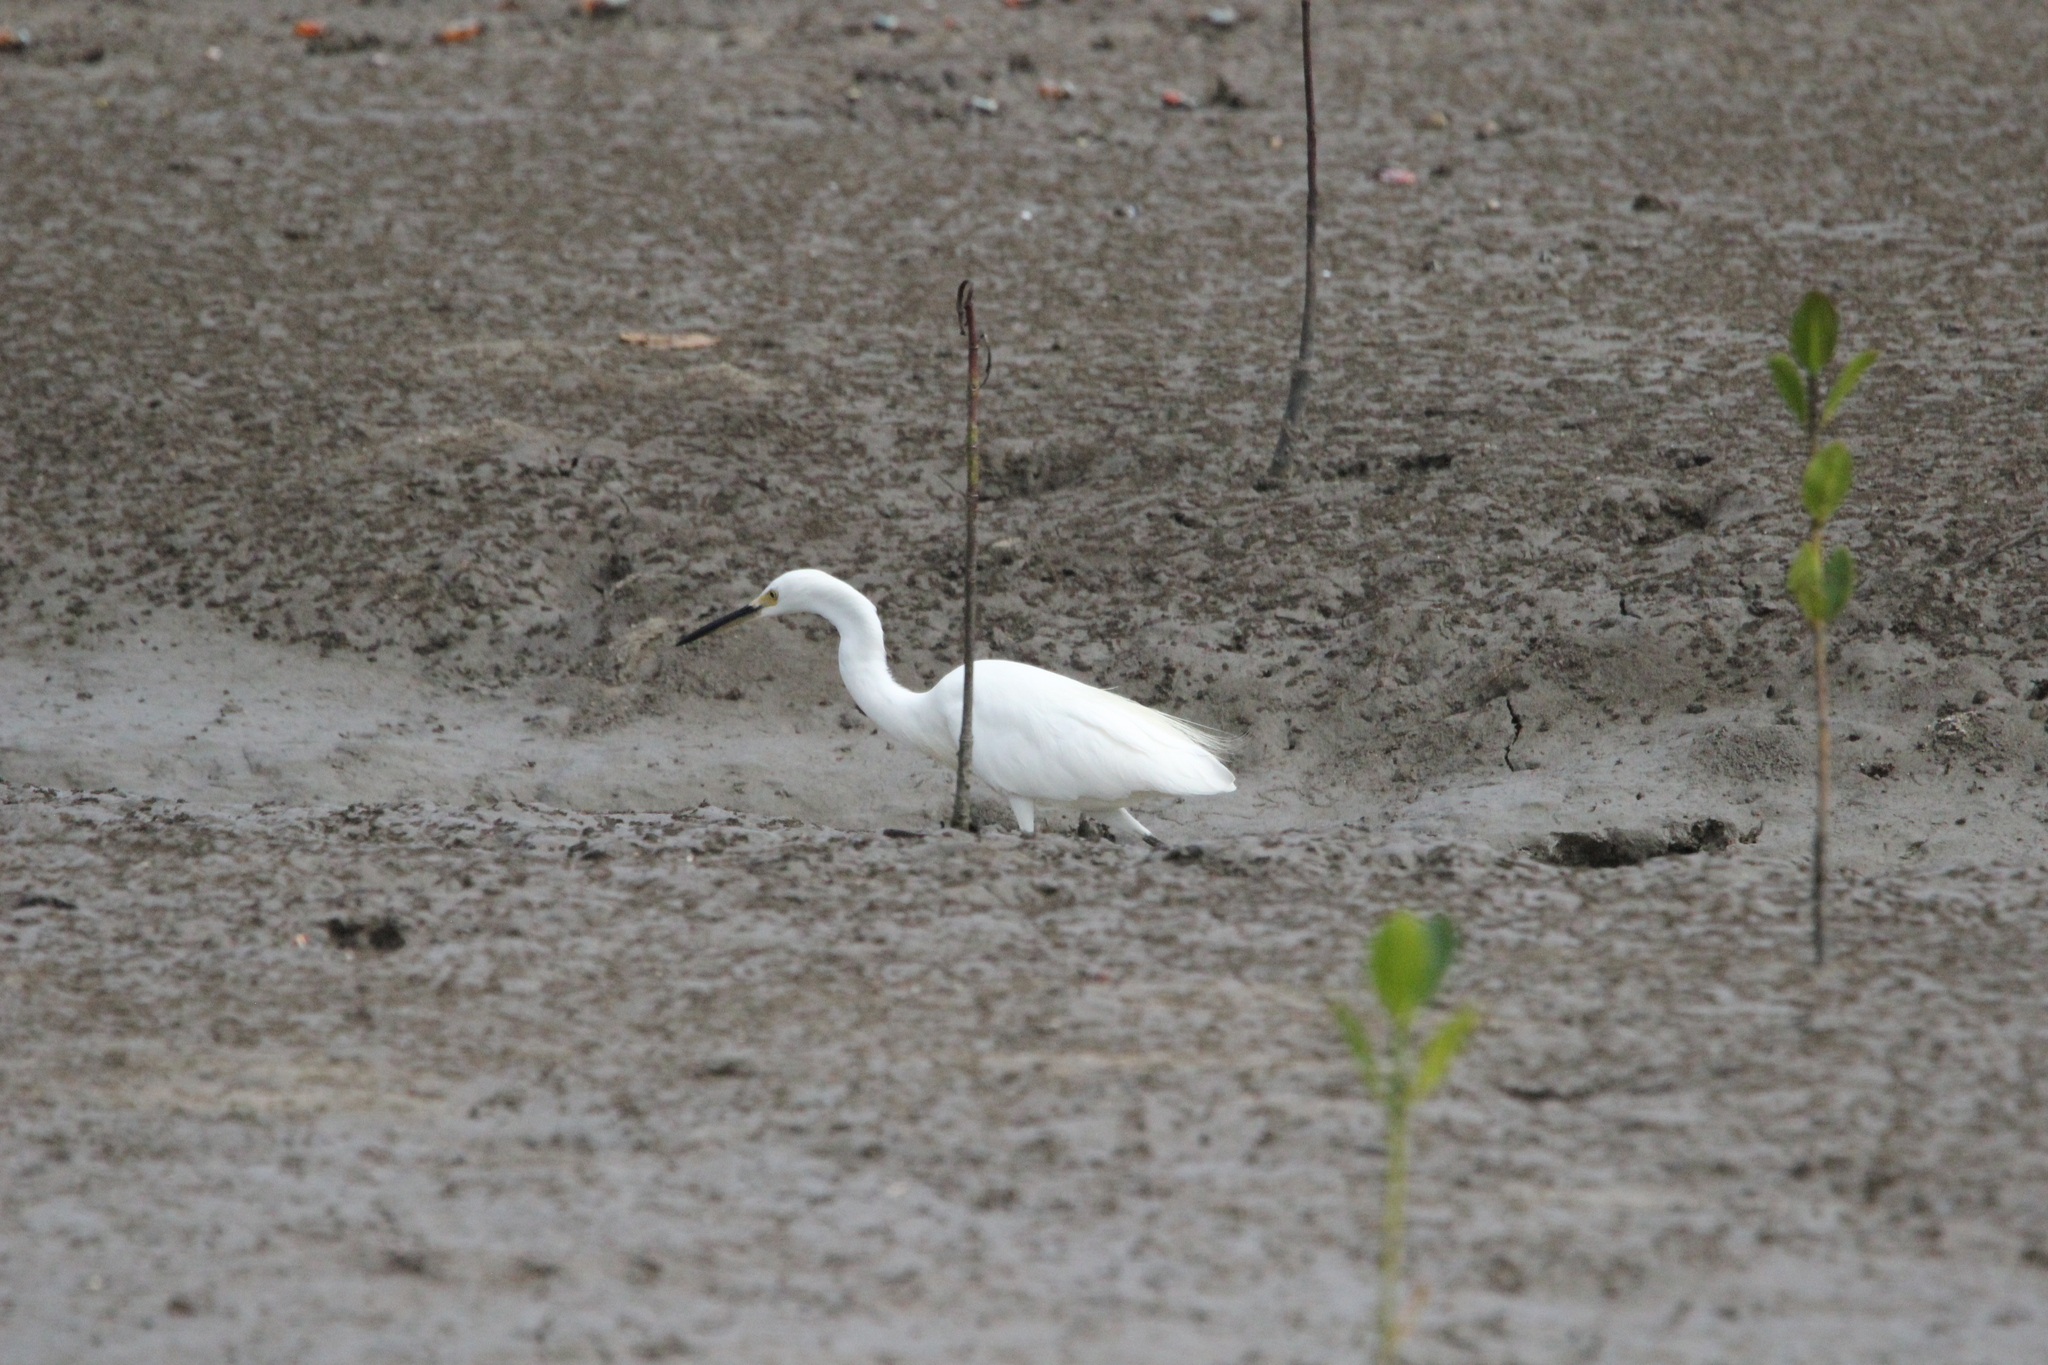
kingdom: Animalia
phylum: Chordata
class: Aves
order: Pelecaniformes
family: Ardeidae
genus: Egretta
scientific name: Egretta garzetta
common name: Little egret
